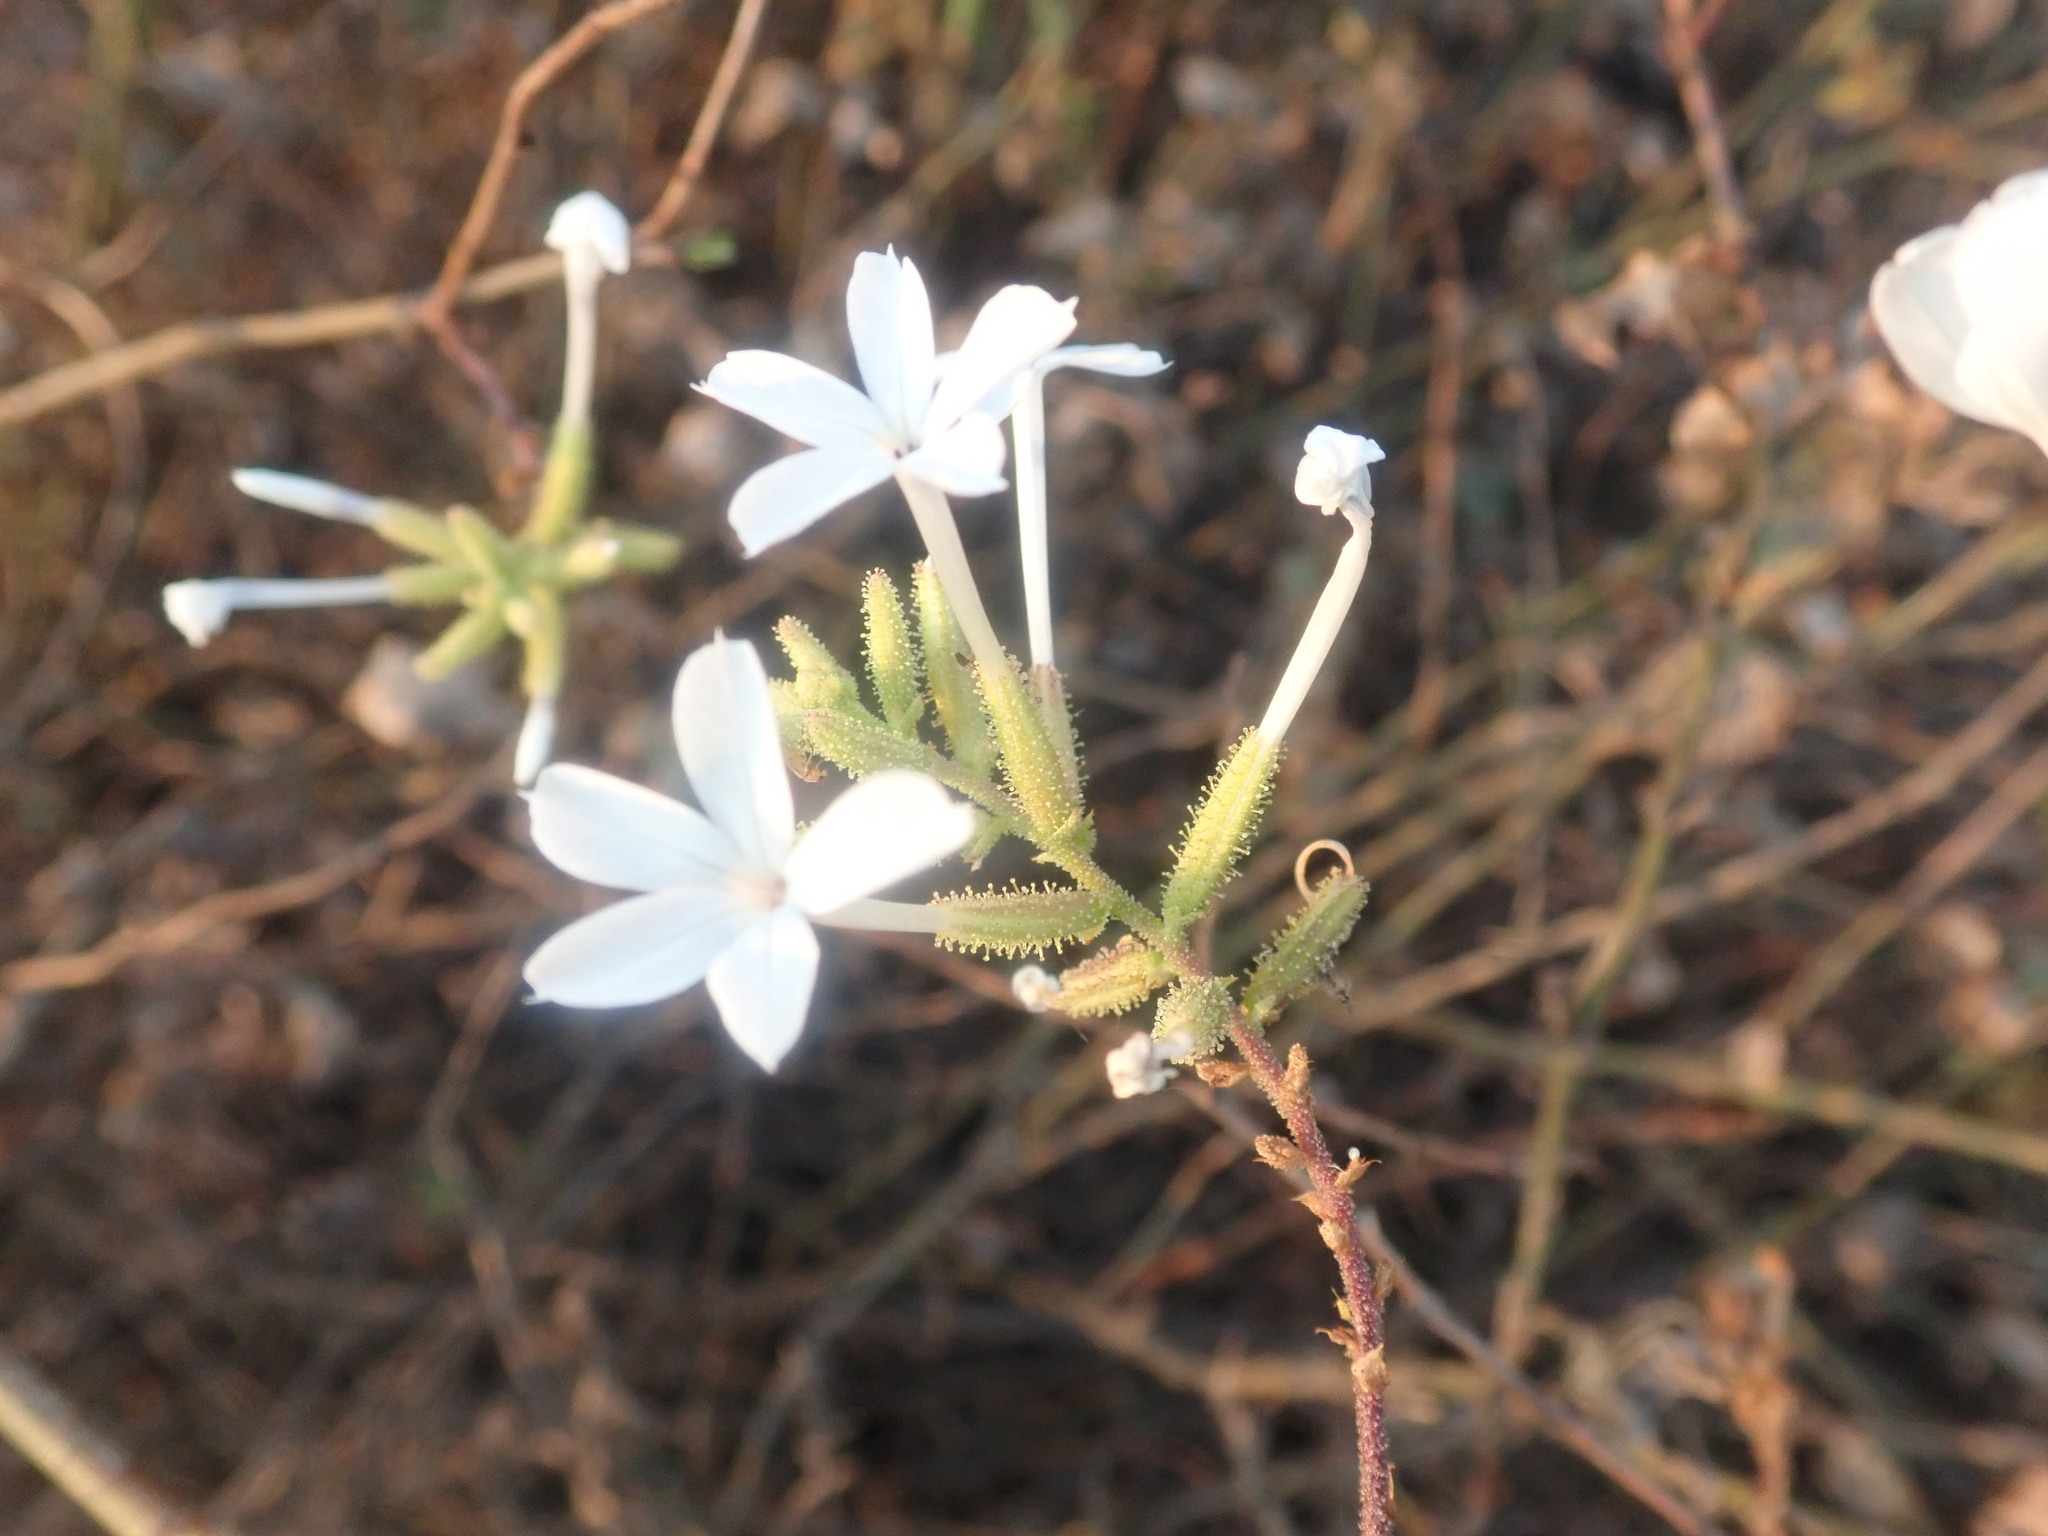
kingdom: Plantae
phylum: Tracheophyta
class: Magnoliopsida
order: Caryophyllales
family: Plumbaginaceae
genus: Plumbago
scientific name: Plumbago zeylanica
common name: Doctorbush
